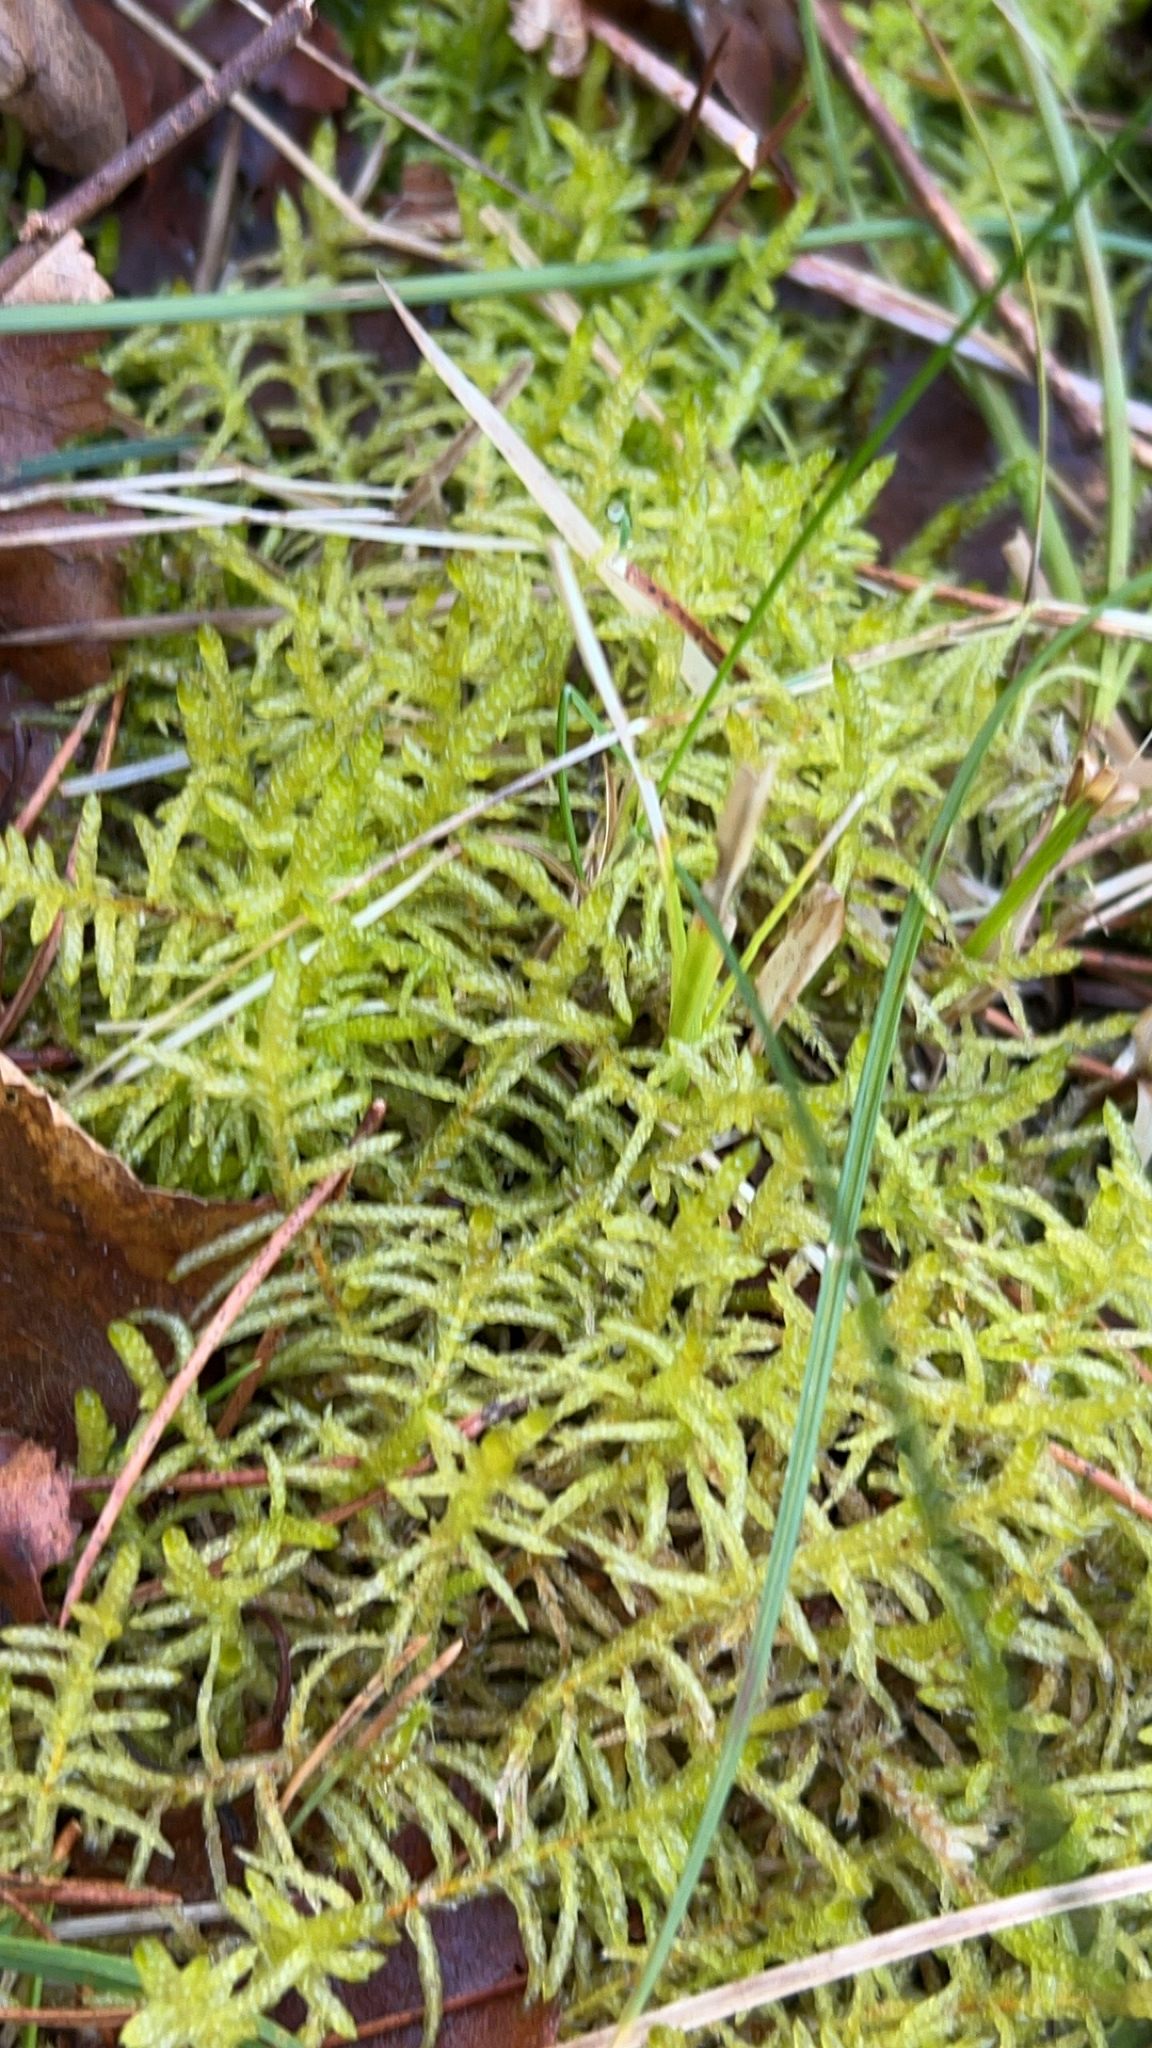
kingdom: Plantae
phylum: Bryophyta
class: Bryopsida
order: Hypnales
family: Brachytheciaceae
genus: Pseudoscleropodium
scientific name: Pseudoscleropodium purum
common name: Neat feather-moss
